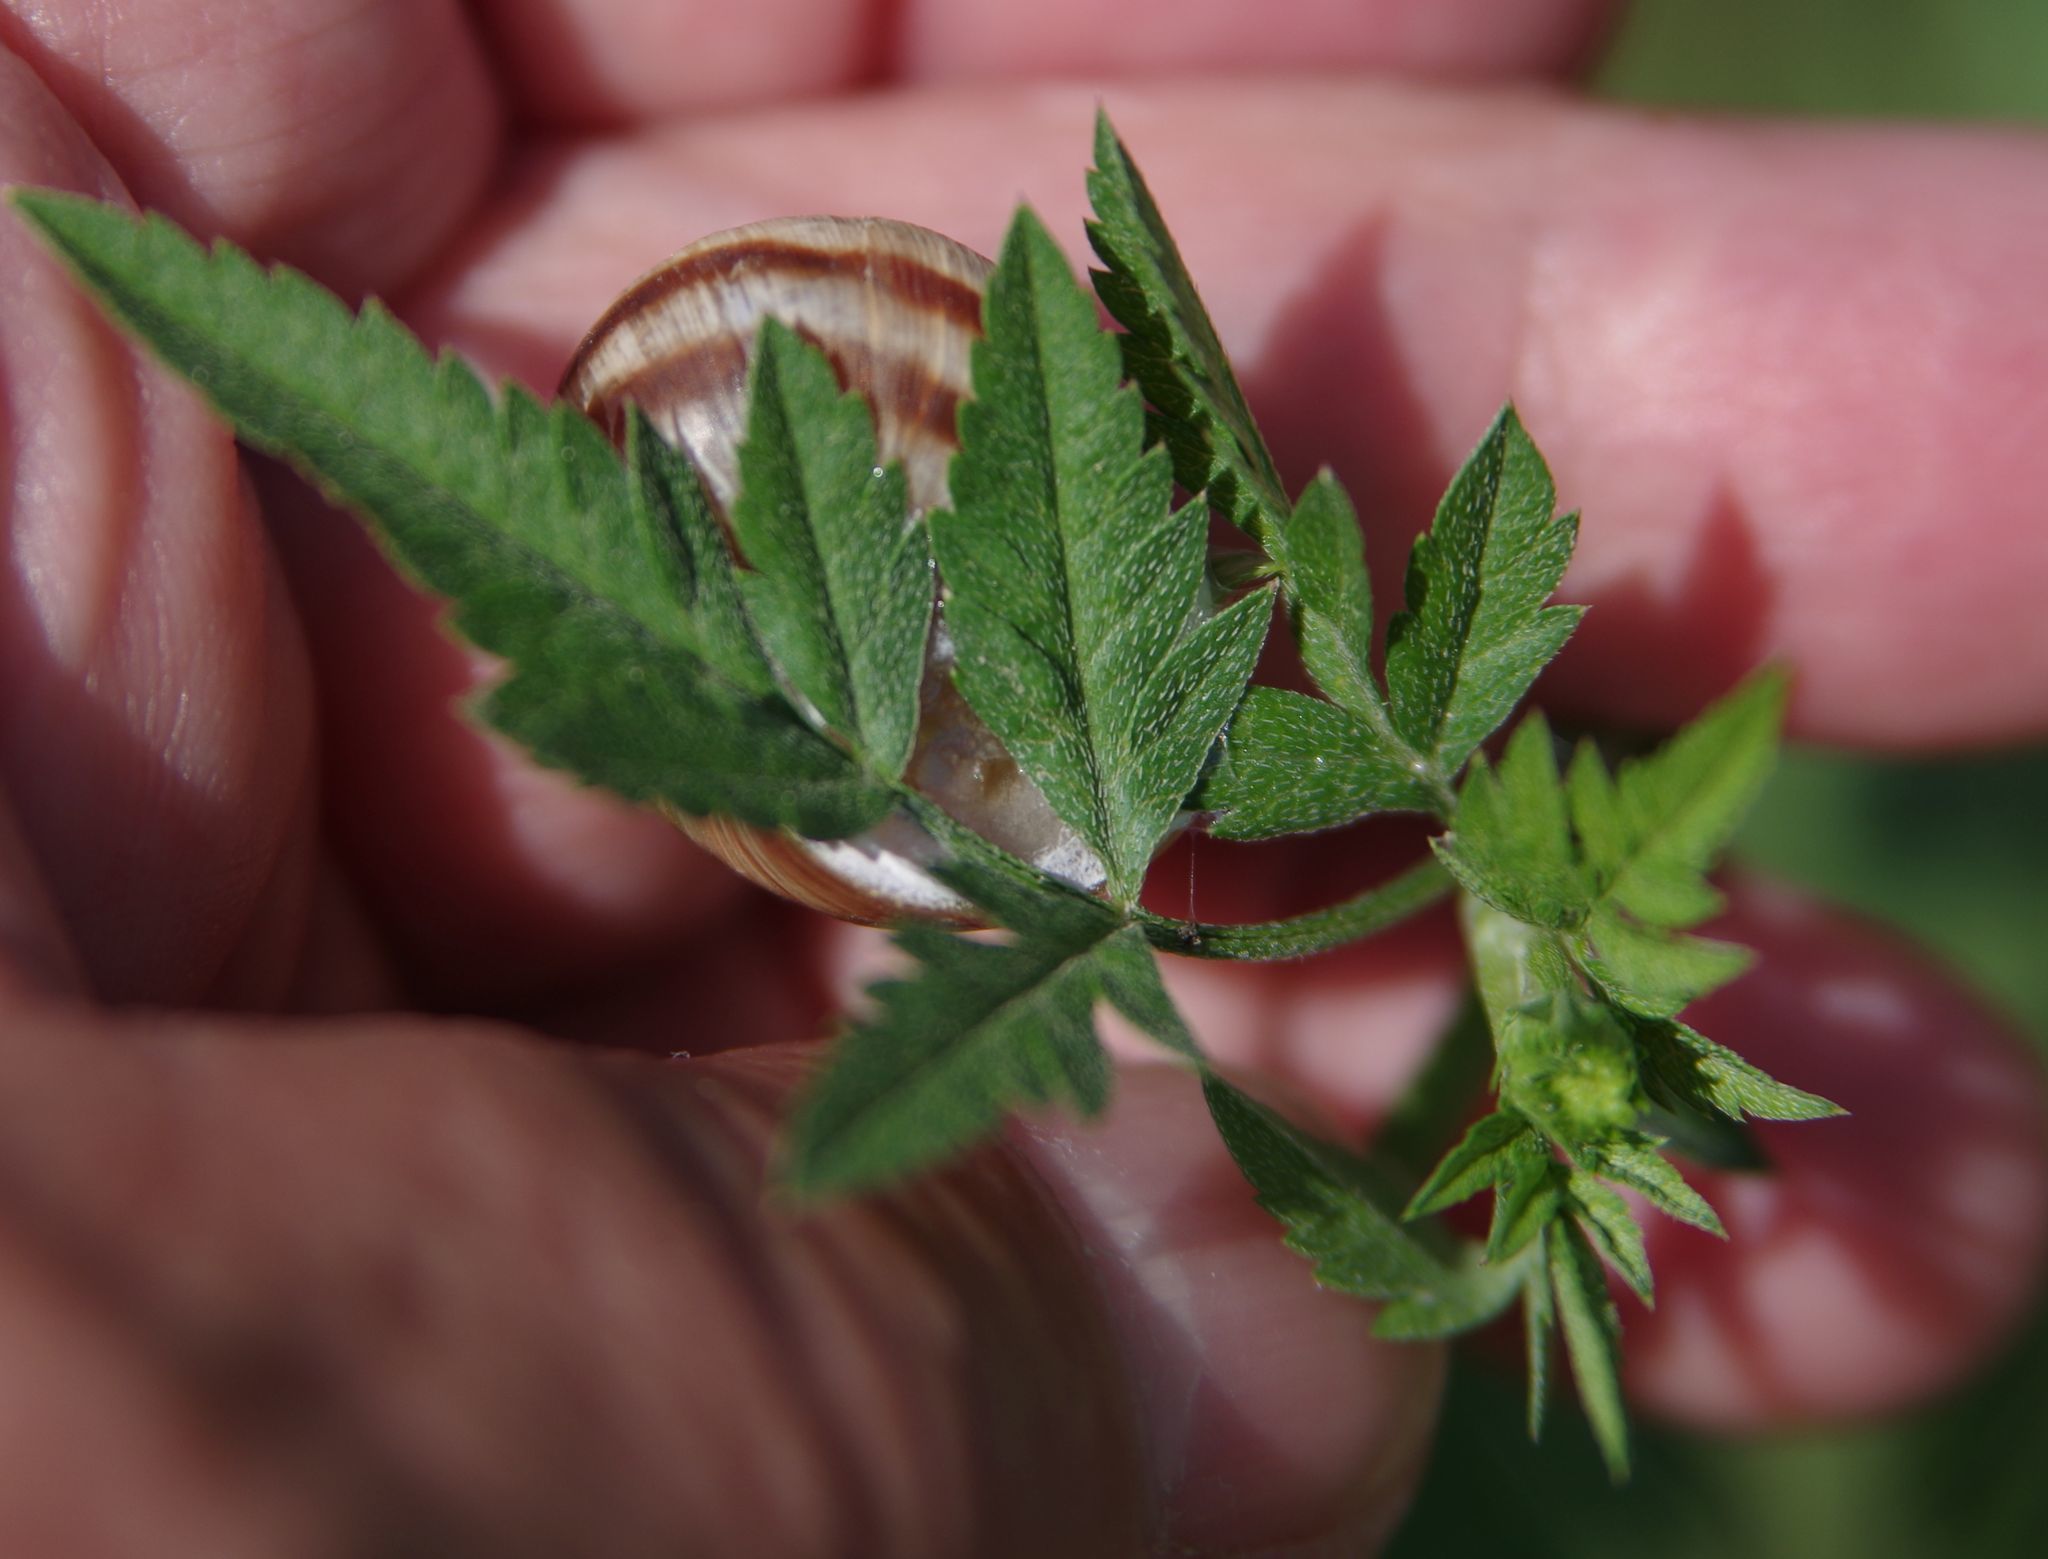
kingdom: Animalia
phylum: Mollusca
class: Gastropoda
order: Stylommatophora
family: Helicidae
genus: Helix
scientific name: Helix lucorum
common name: Turkish snail
